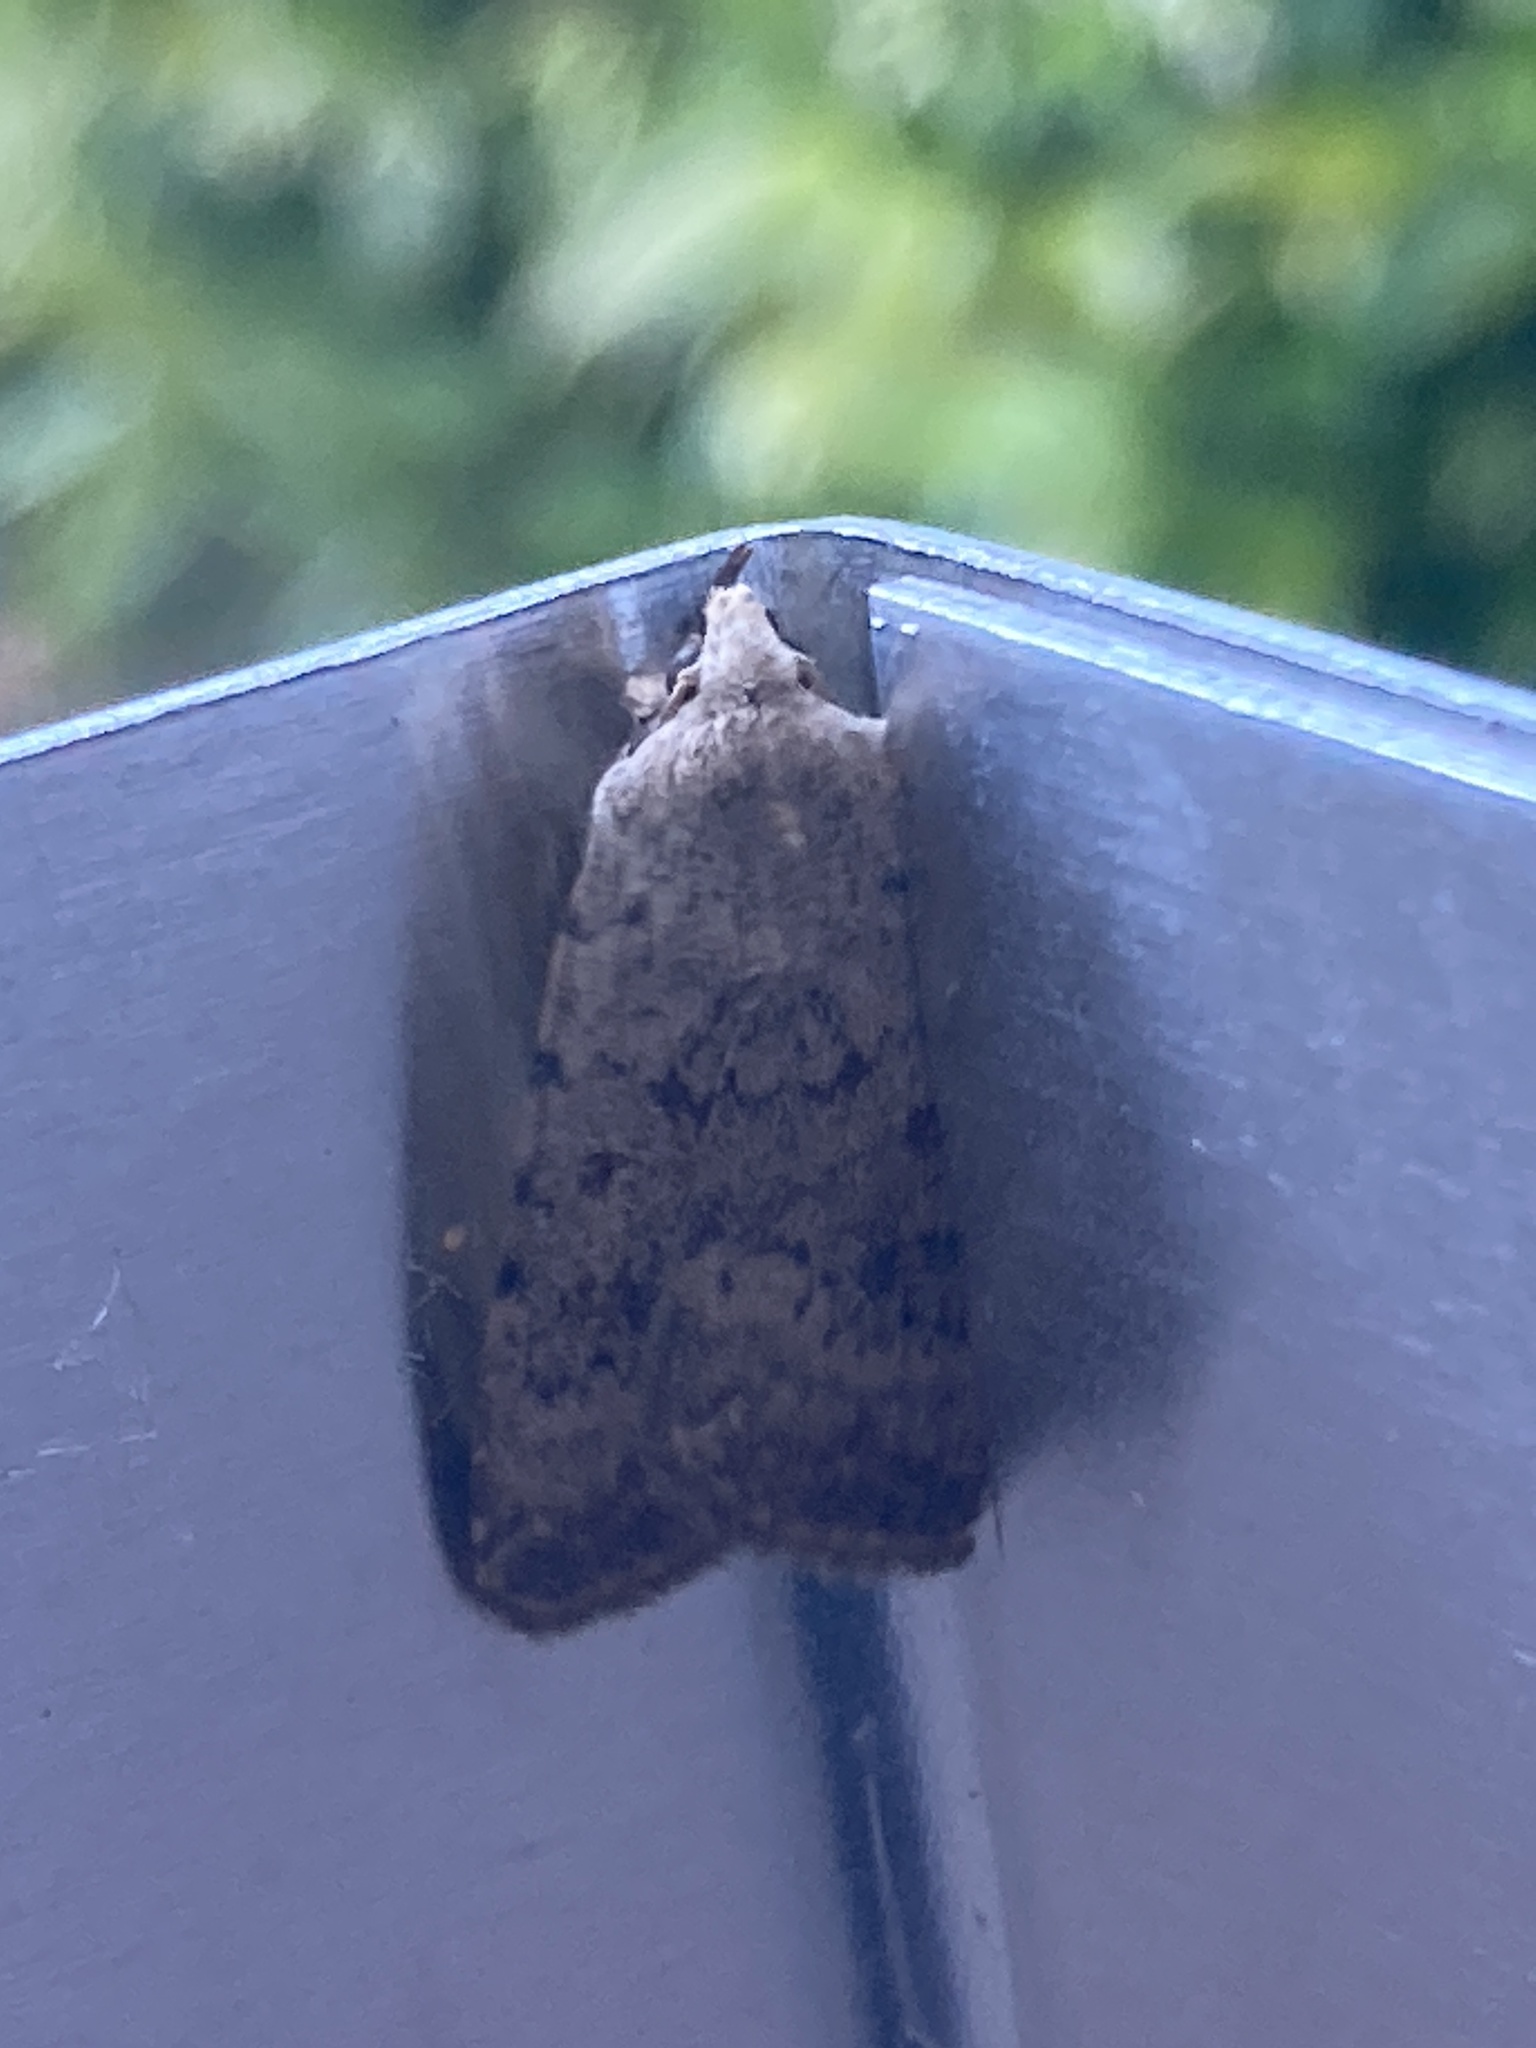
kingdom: Animalia
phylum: Arthropoda
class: Insecta
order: Lepidoptera
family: Noctuidae
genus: Caradrina
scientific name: Caradrina clavipalpis
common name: Pale mottled willow
